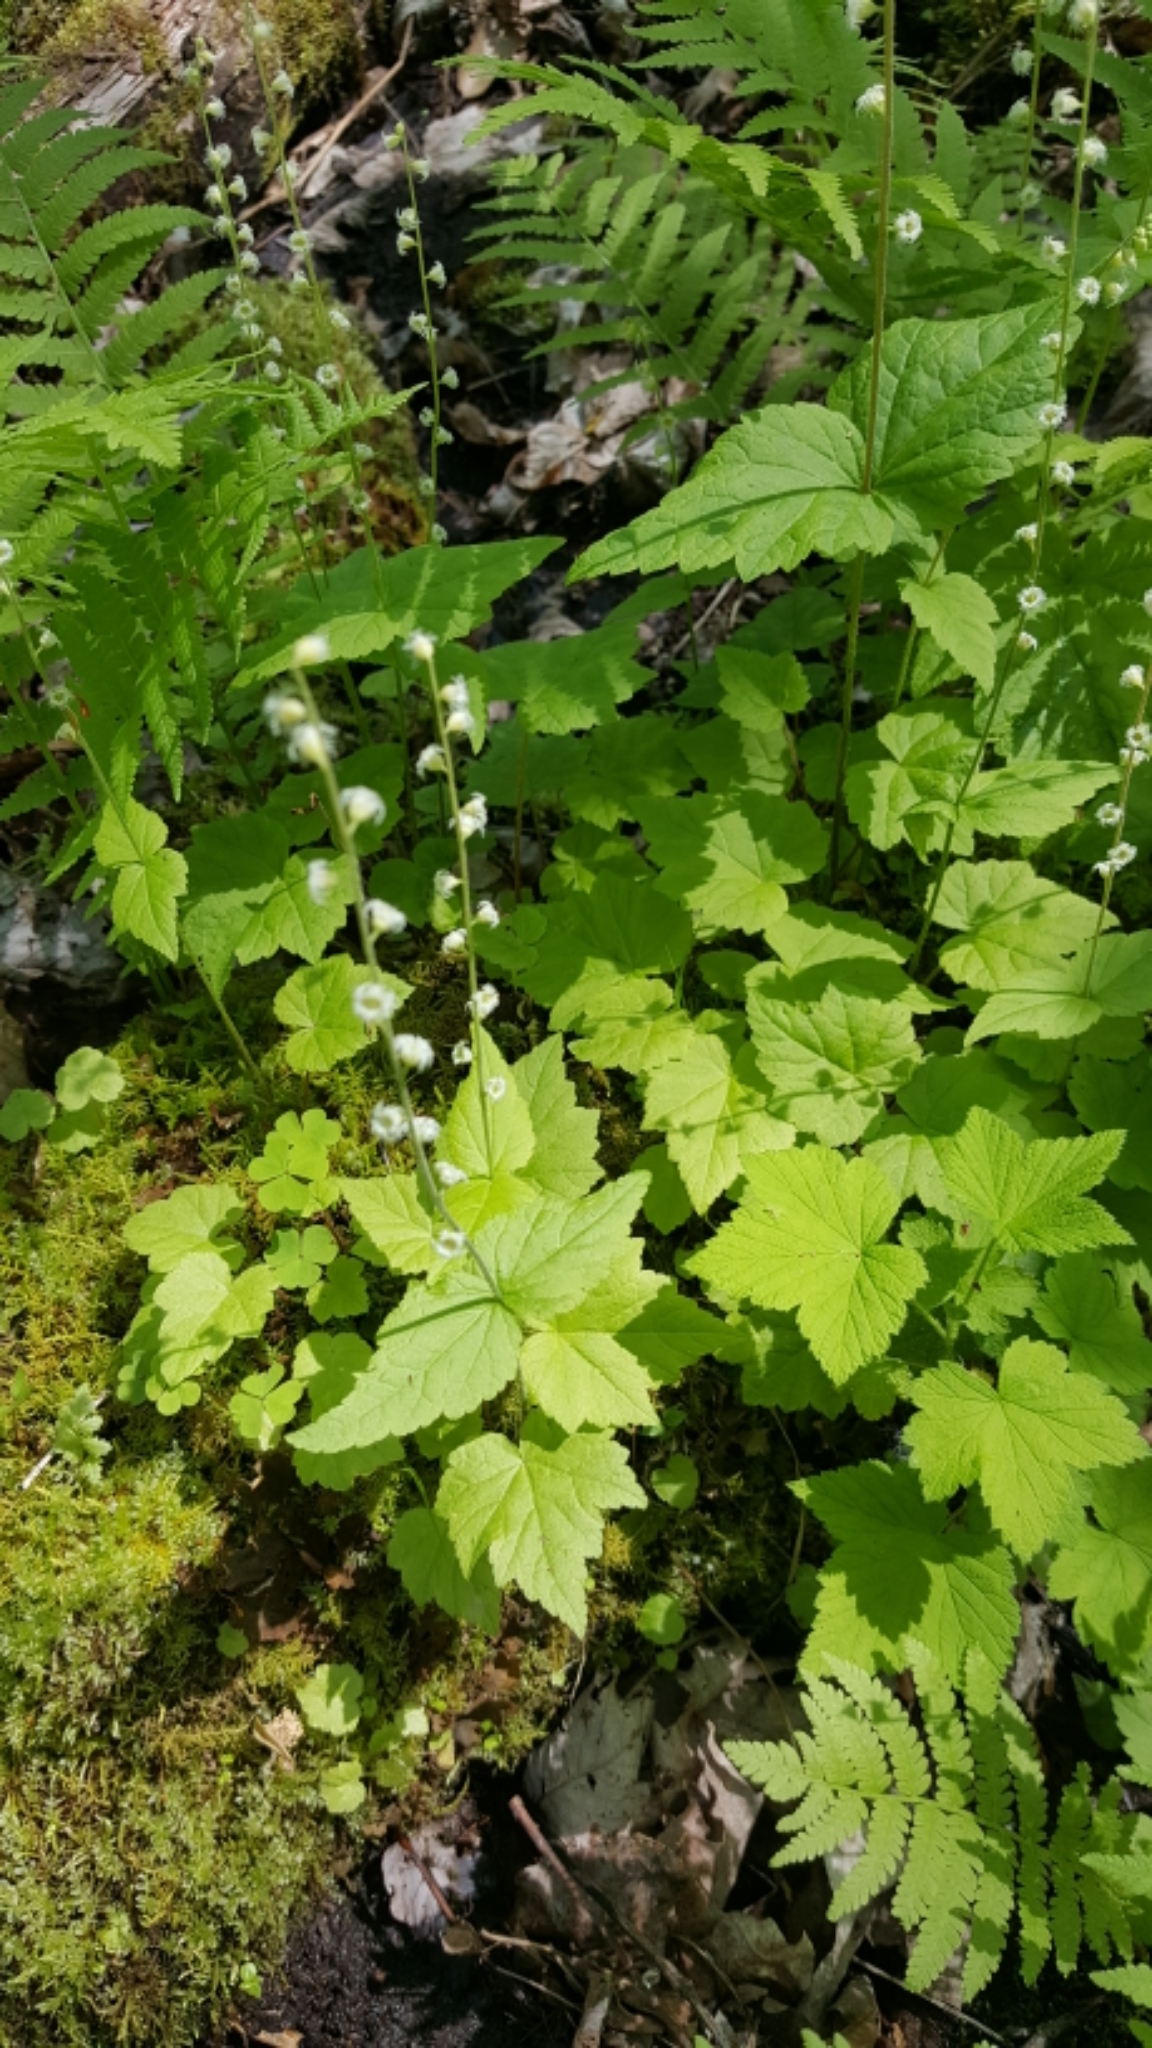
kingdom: Plantae
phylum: Tracheophyta
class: Magnoliopsida
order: Saxifragales
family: Saxifragaceae
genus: Mitella
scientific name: Mitella diphylla
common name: Coolwort
